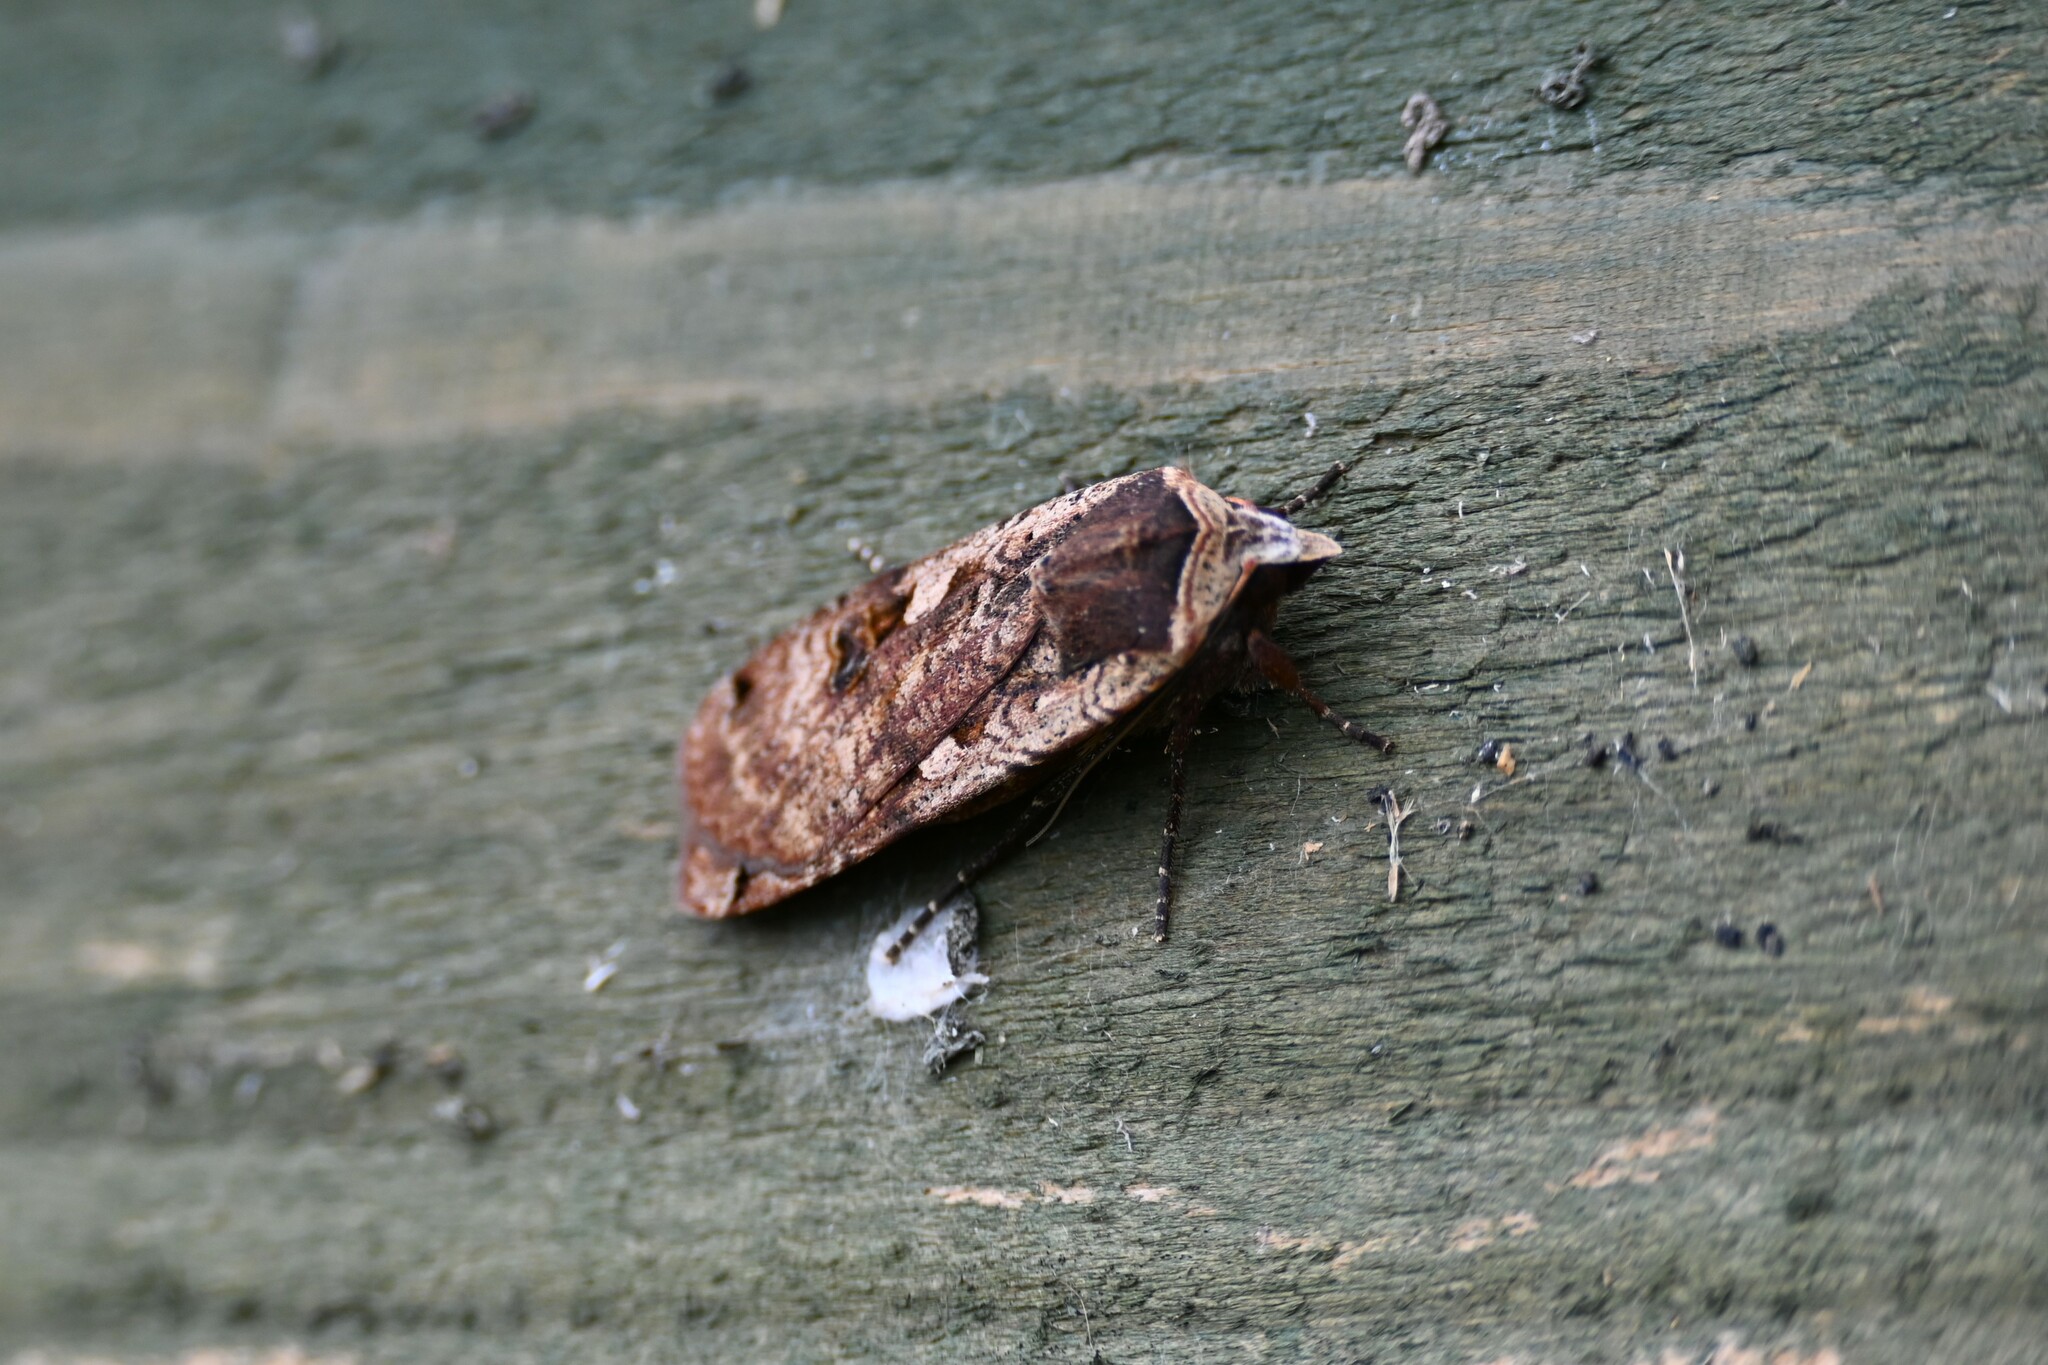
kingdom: Animalia
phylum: Arthropoda
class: Insecta
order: Lepidoptera
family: Noctuidae
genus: Noctua
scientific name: Noctua pronuba
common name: Large yellow underwing
